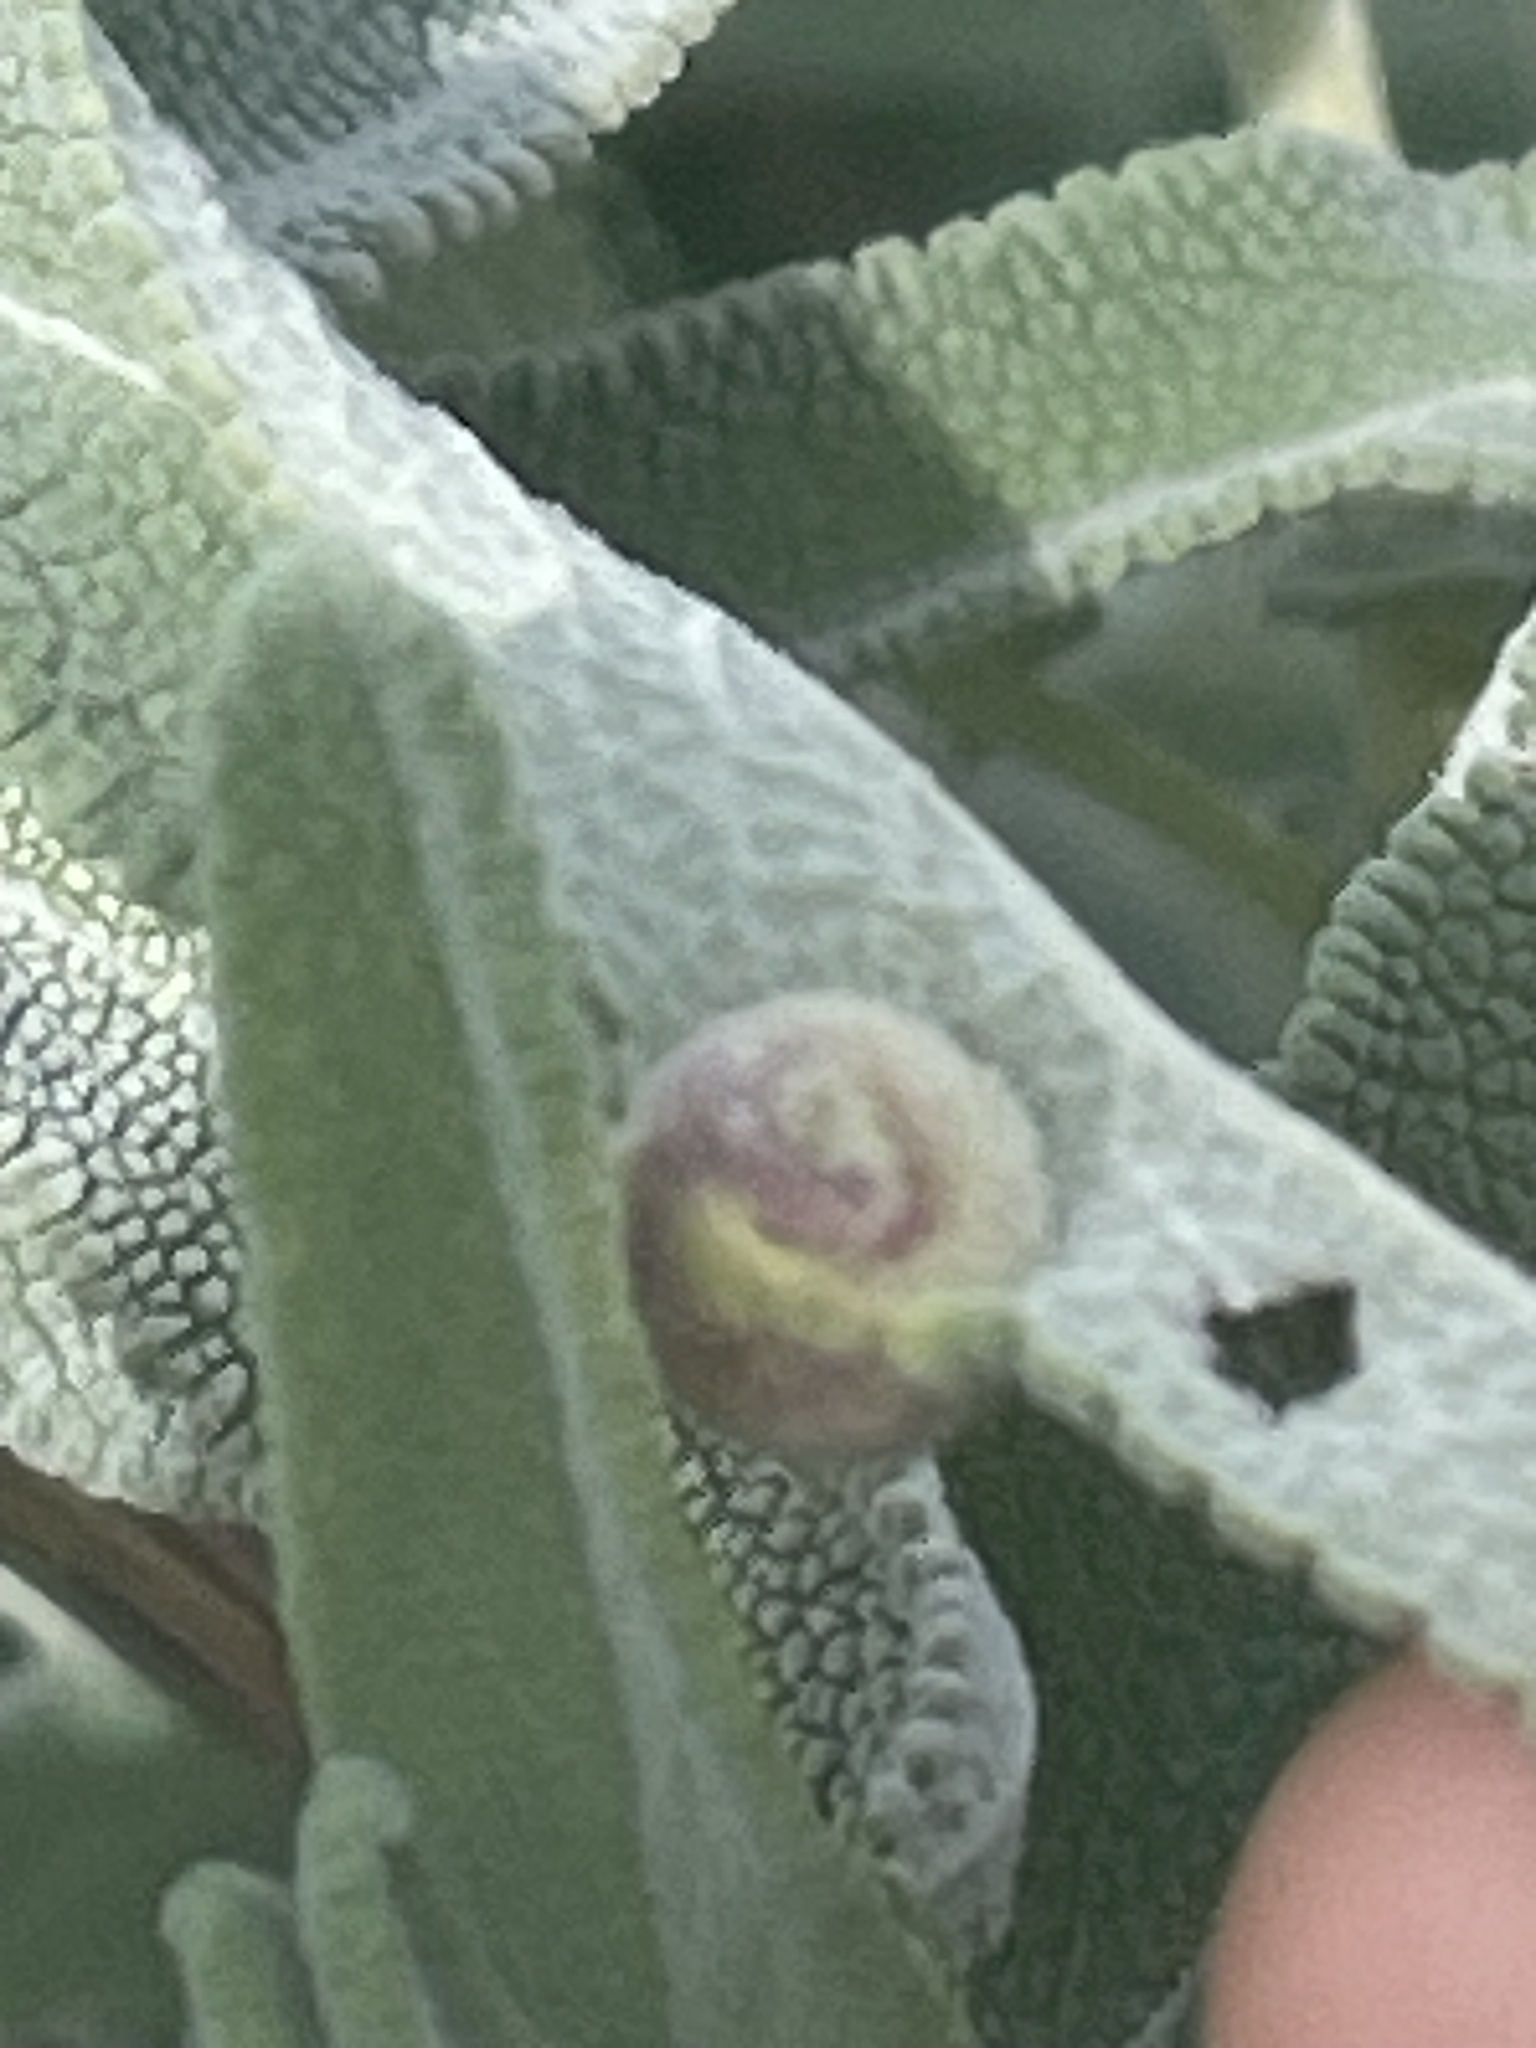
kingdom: Animalia
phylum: Arthropoda
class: Insecta
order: Diptera
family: Cecidomyiidae
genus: Rhopalomyia
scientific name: Rhopalomyia audibertiae
